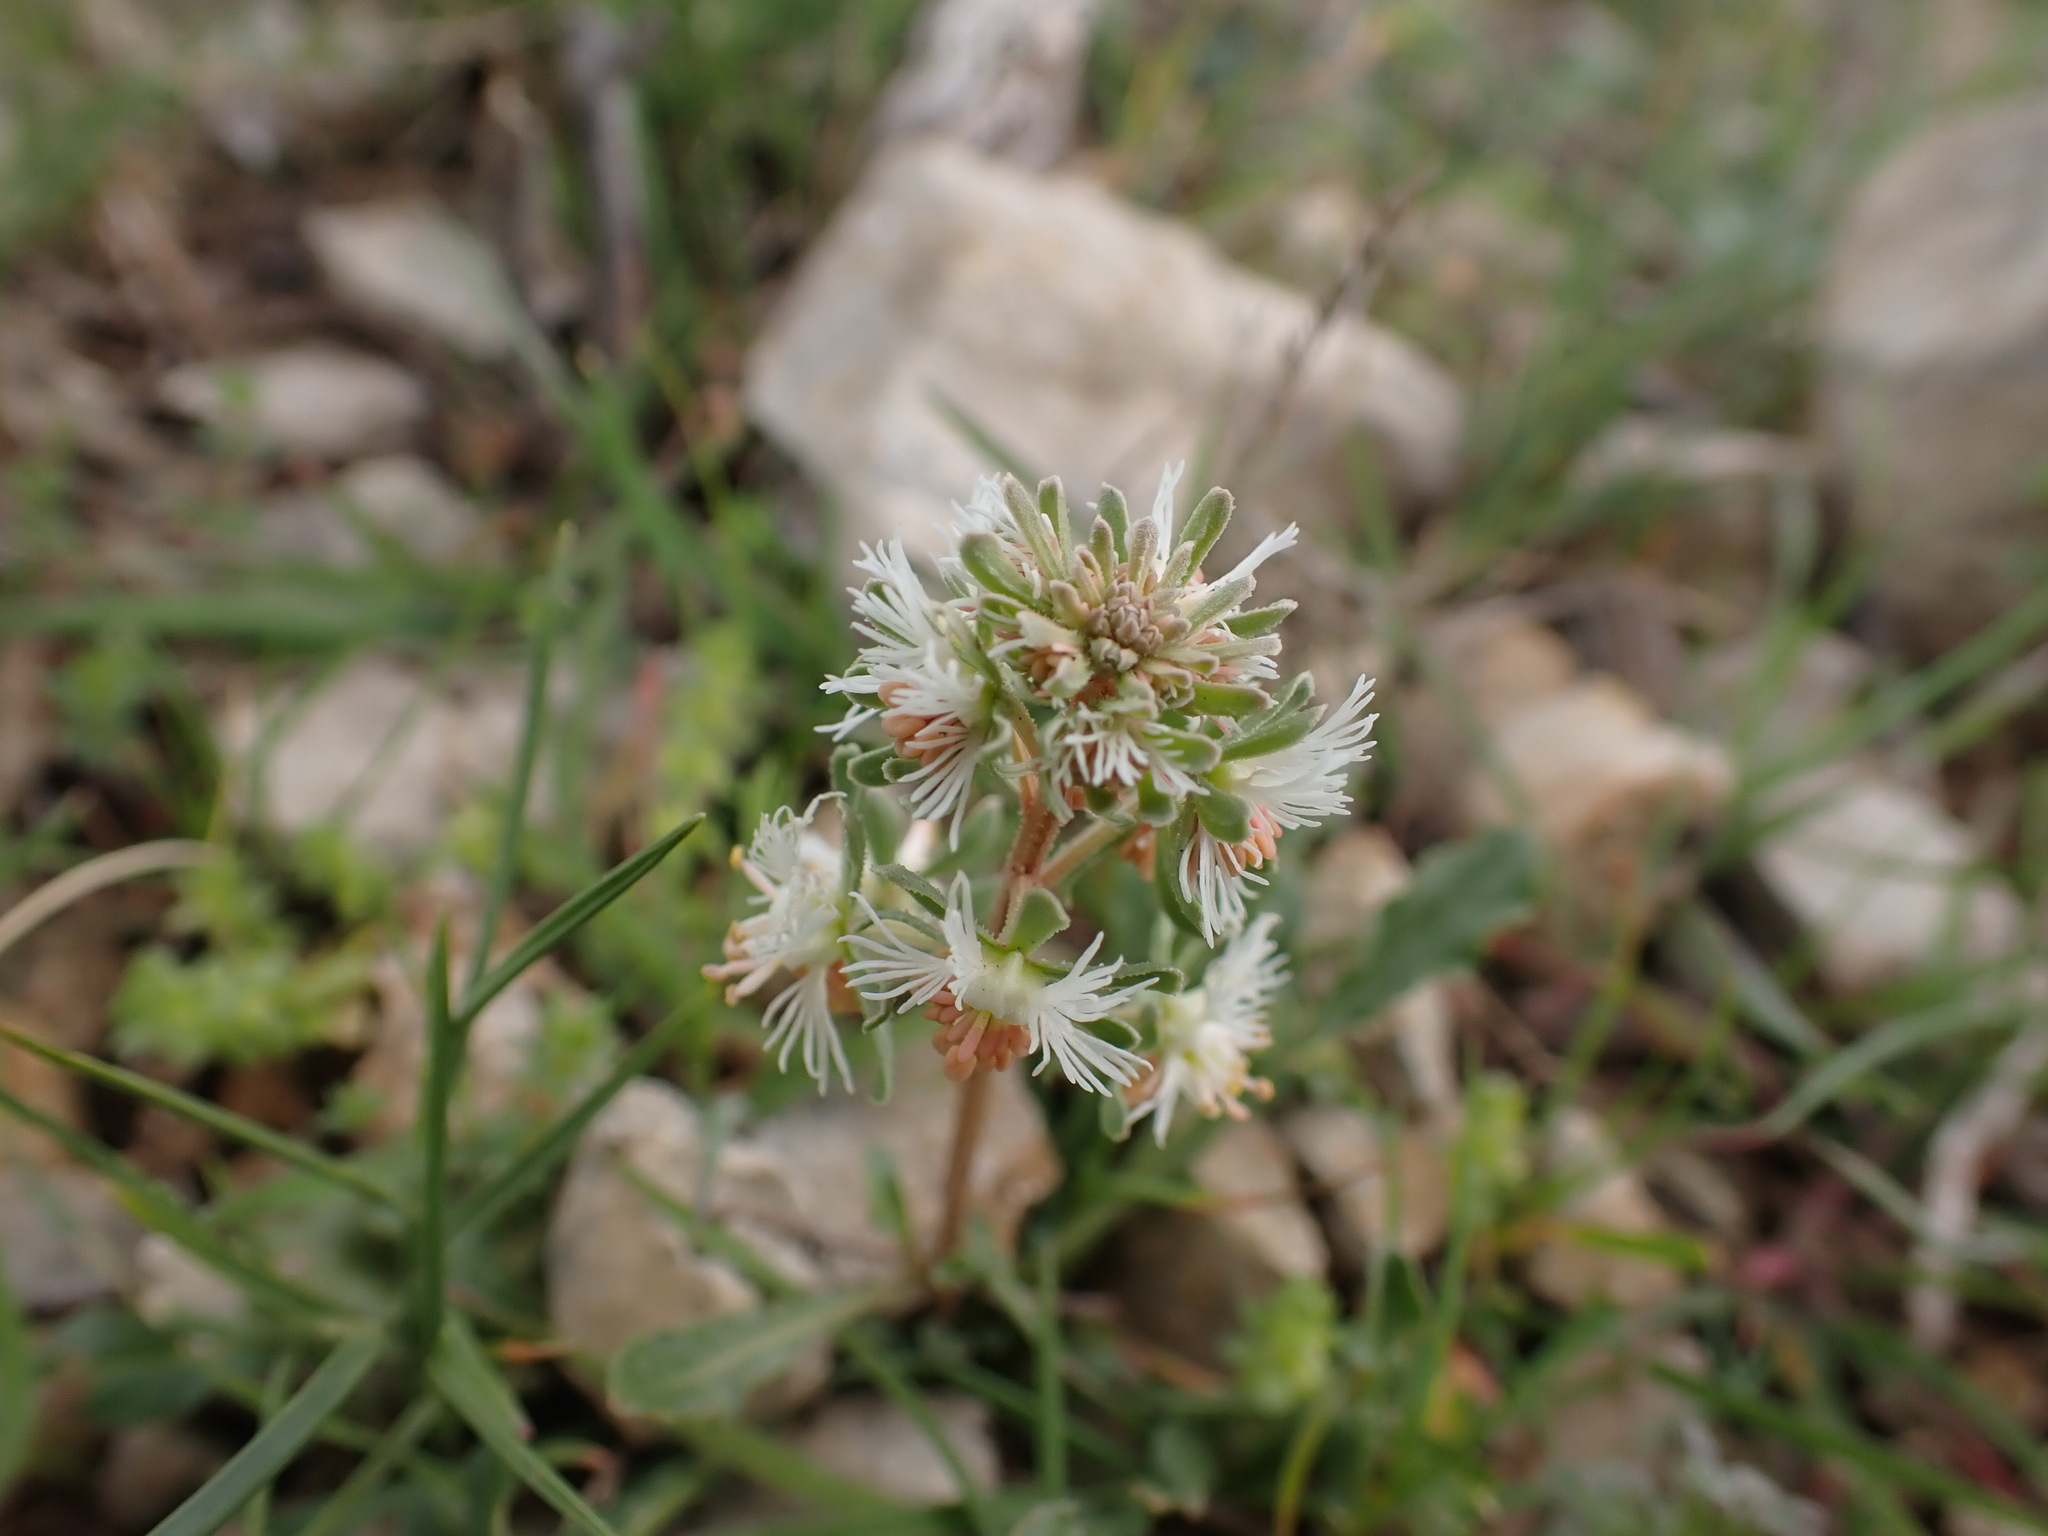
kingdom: Plantae
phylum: Tracheophyta
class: Magnoliopsida
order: Brassicales
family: Resedaceae
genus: Reseda
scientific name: Reseda phyteuma
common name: Corn mignonette
